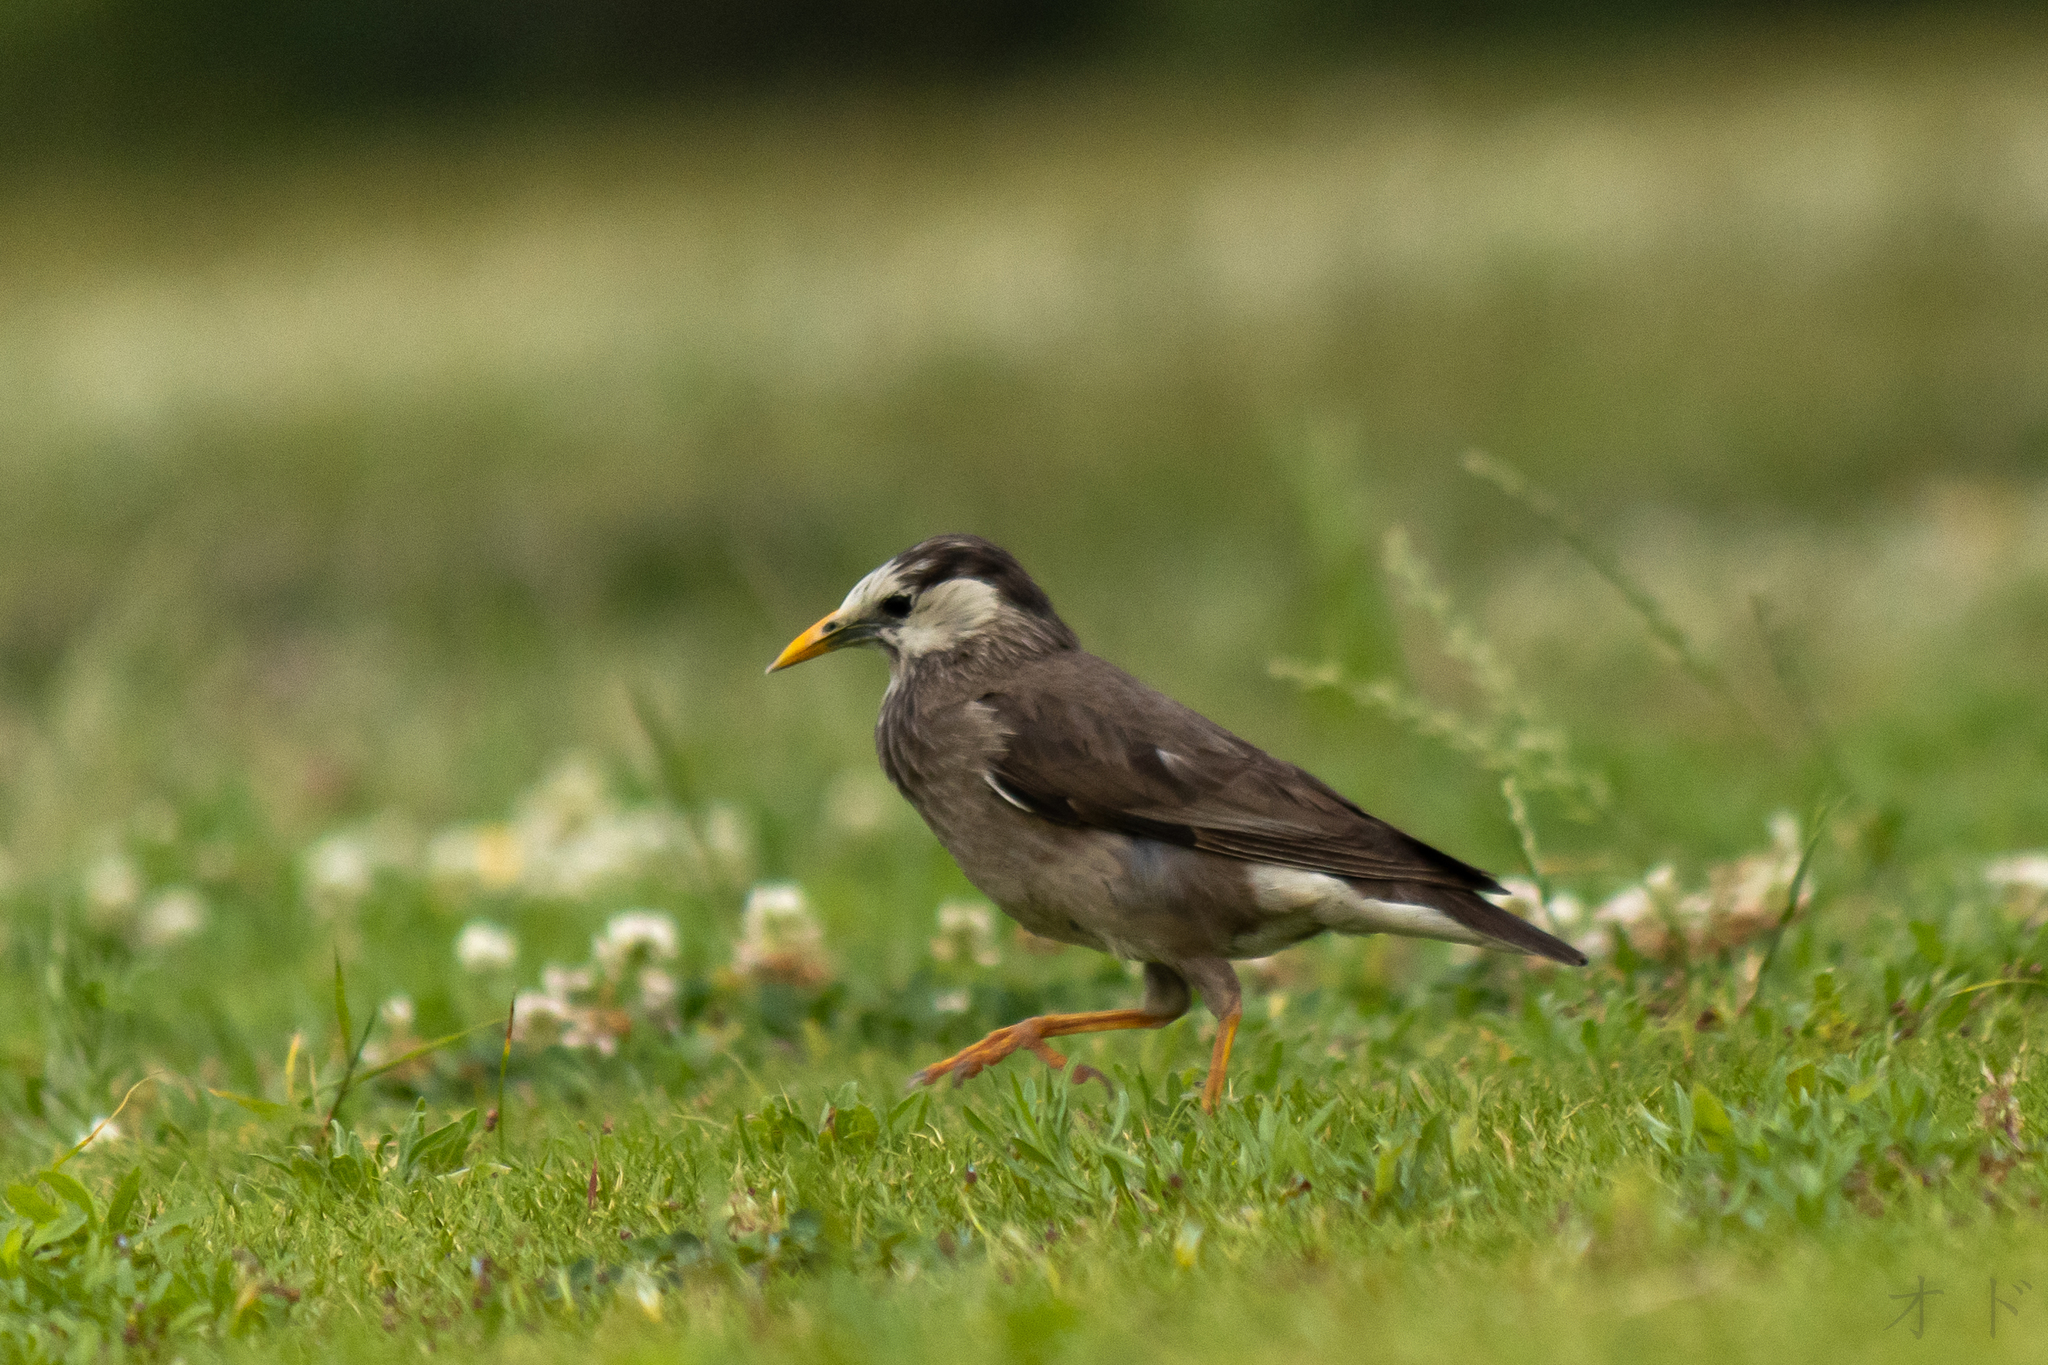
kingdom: Animalia
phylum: Chordata
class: Aves
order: Passeriformes
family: Sturnidae
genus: Spodiopsar
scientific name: Spodiopsar cineraceus
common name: White-cheeked starling
